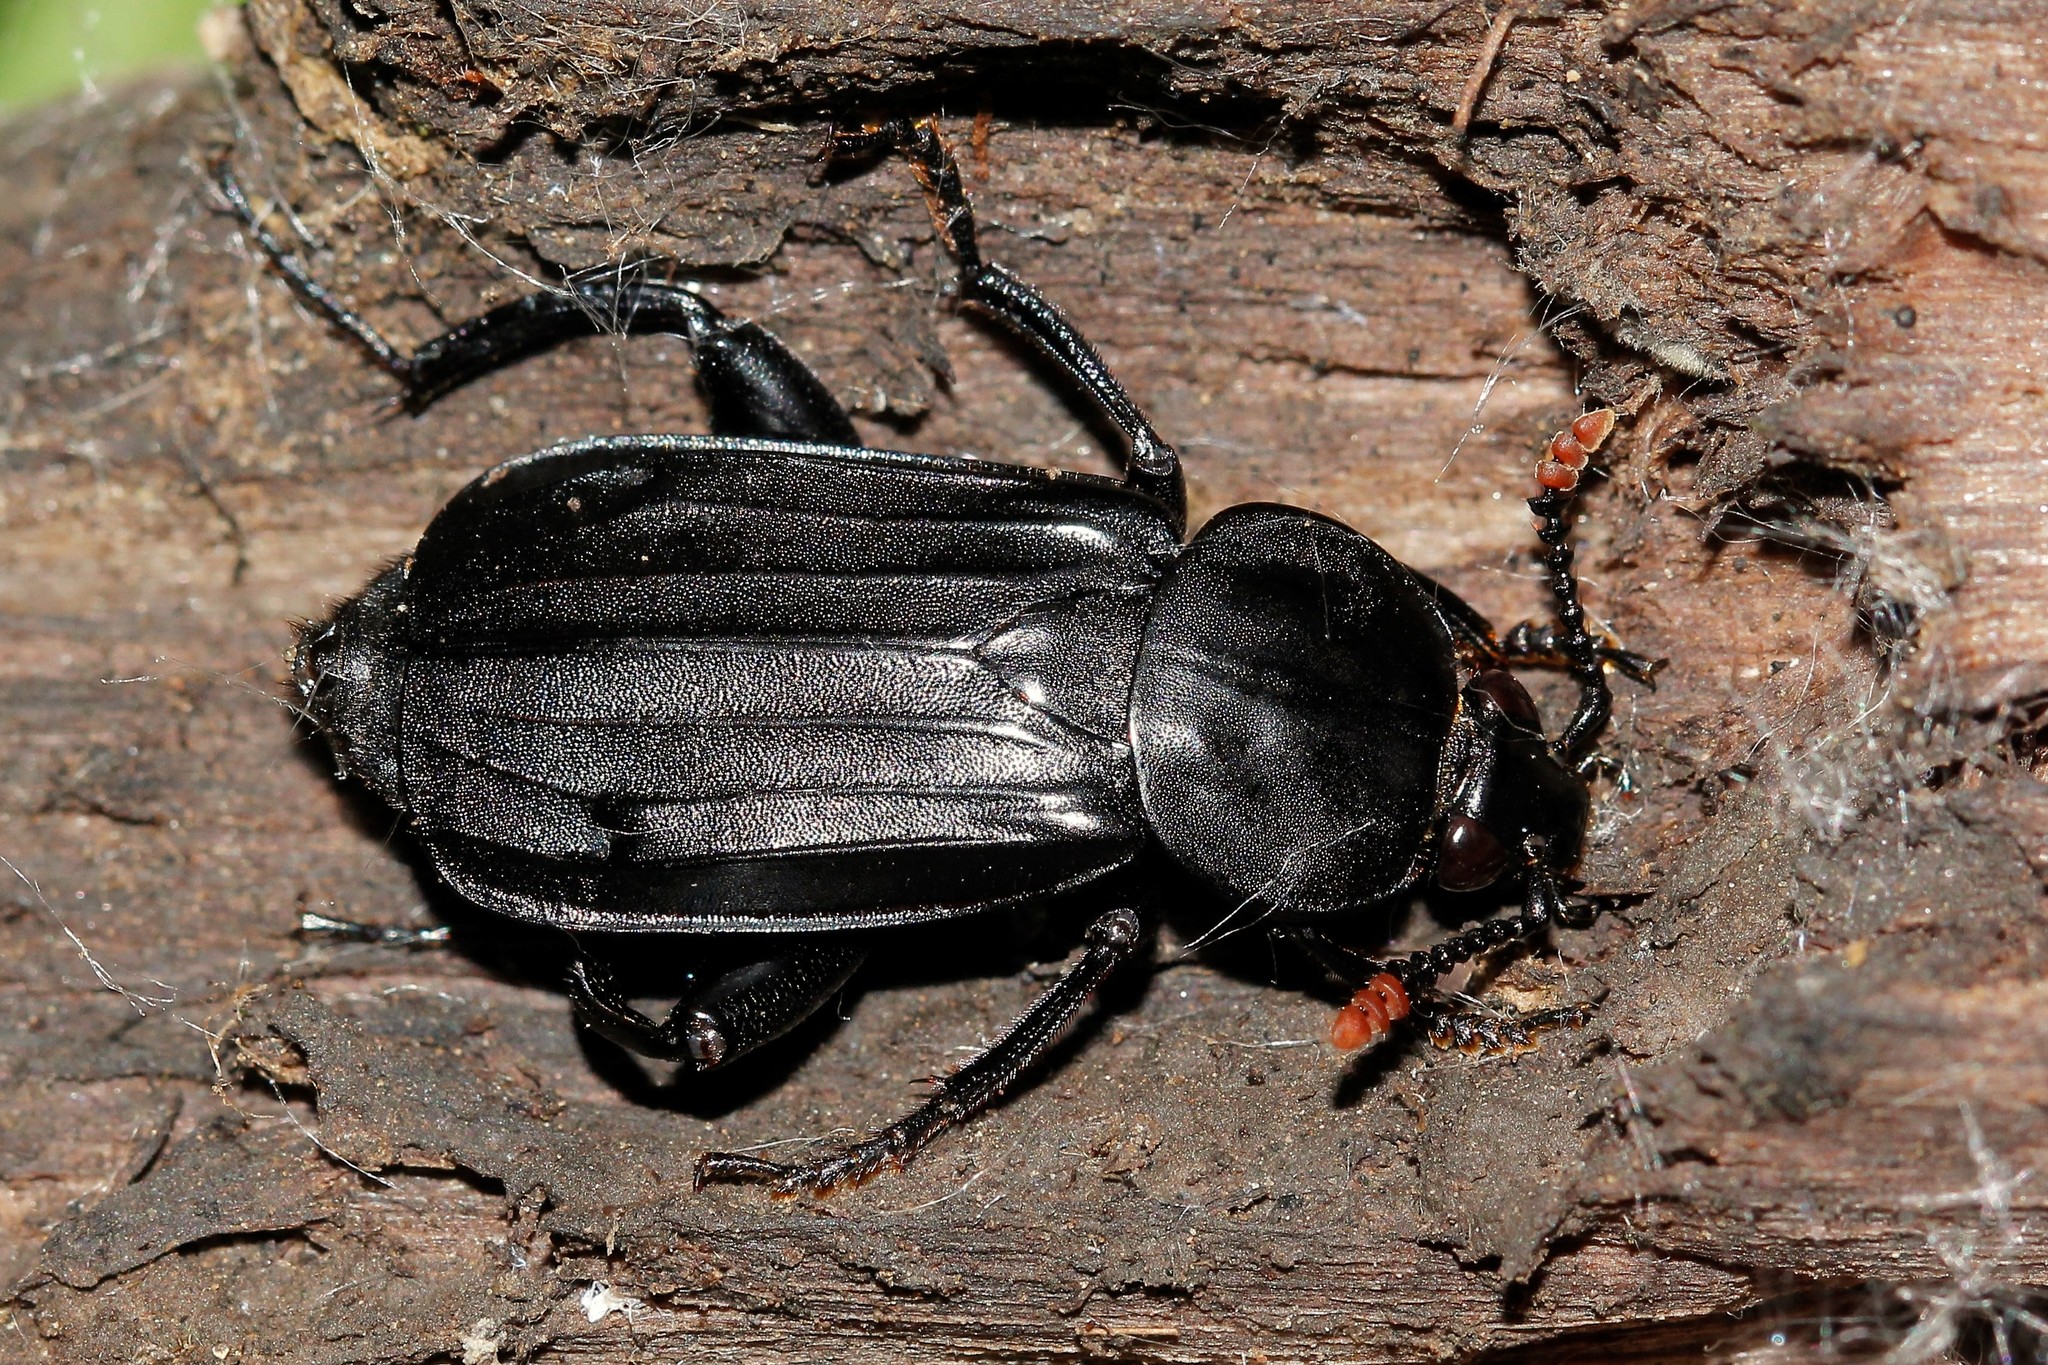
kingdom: Animalia
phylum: Arthropoda
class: Insecta
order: Coleoptera
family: Staphylinidae
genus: Necrodes
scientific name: Necrodes littoralis
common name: Shore sexton beetle
